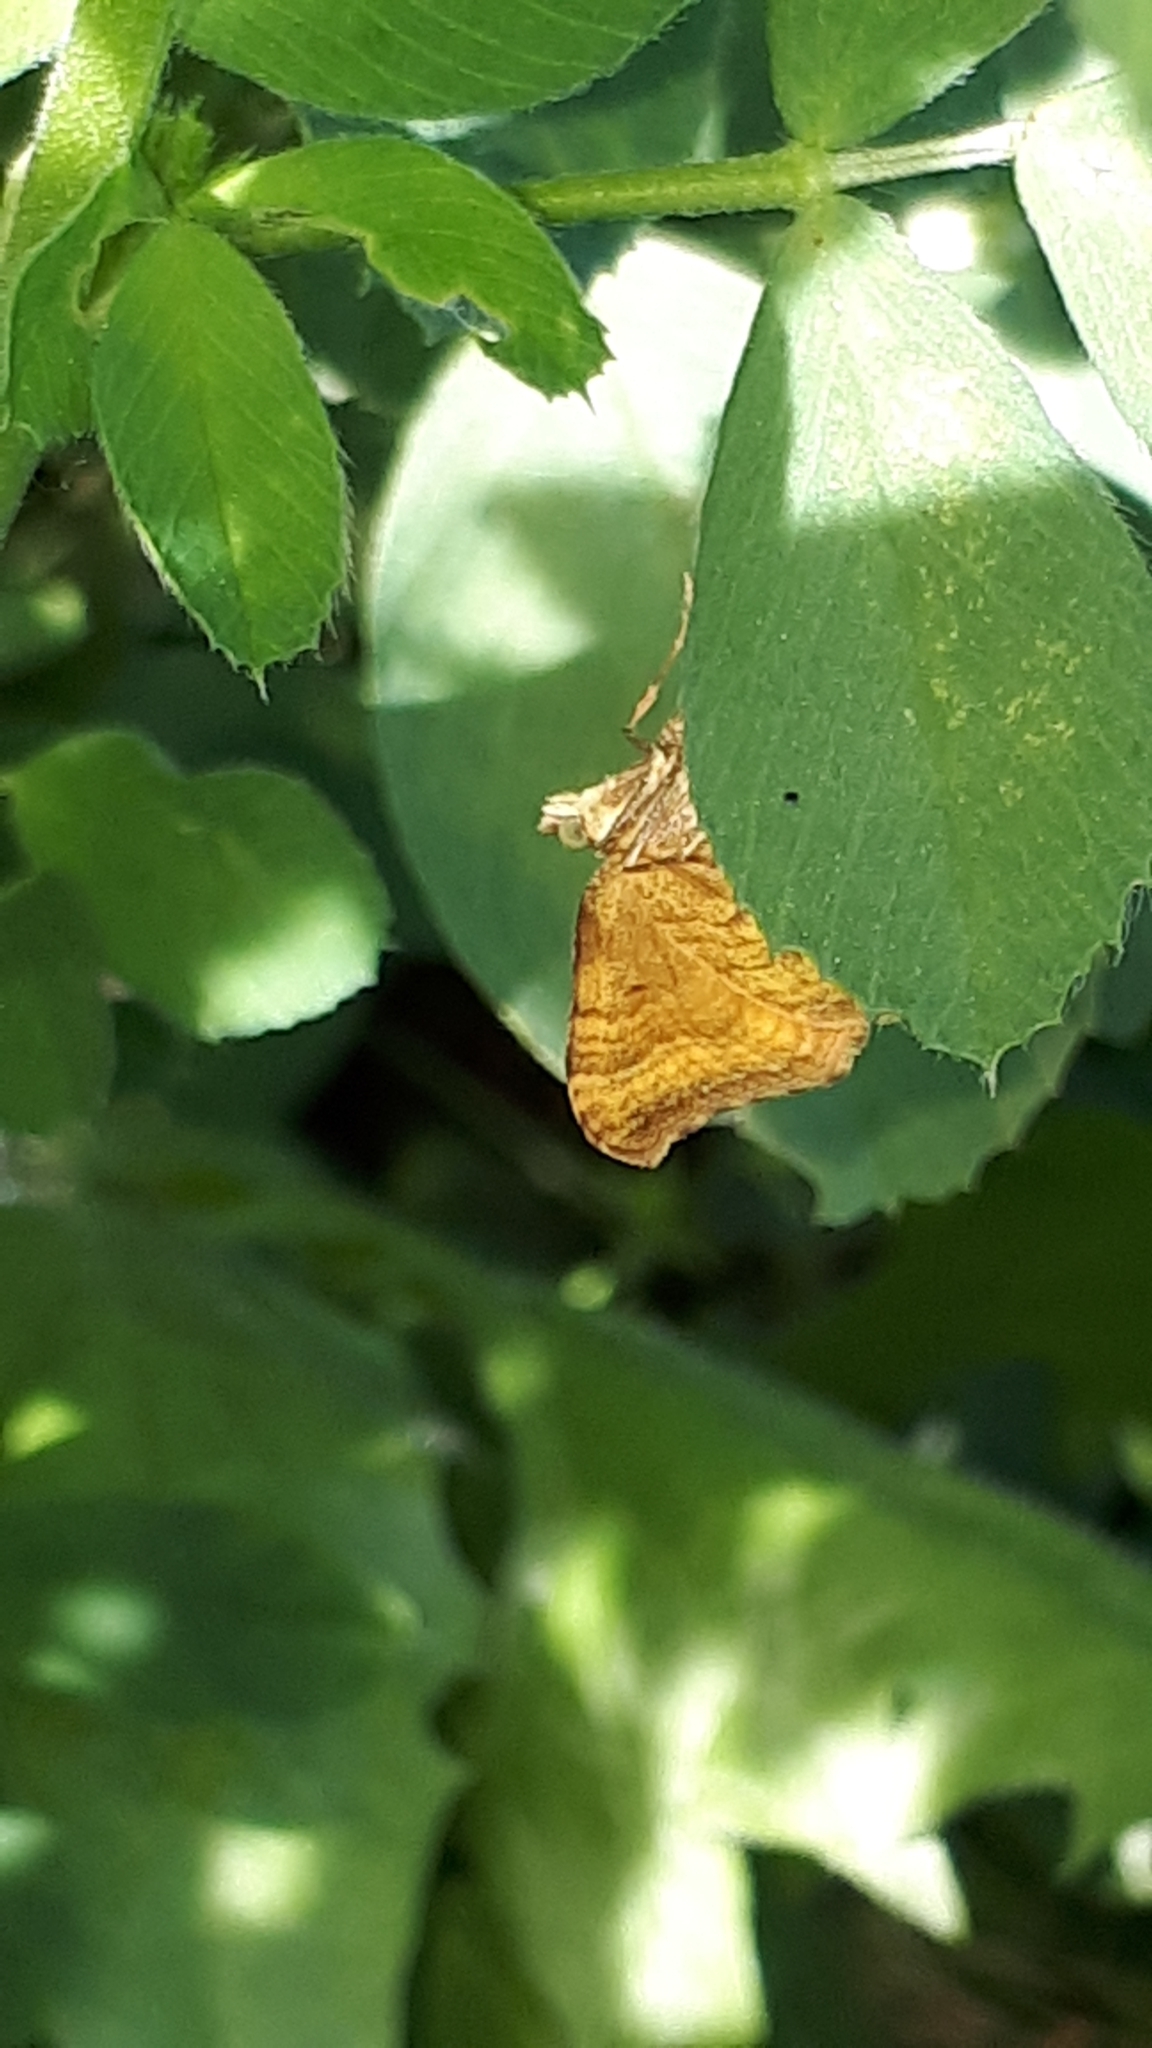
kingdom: Animalia
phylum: Arthropoda
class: Insecta
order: Lepidoptera
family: Geometridae
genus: Camptogramma
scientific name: Camptogramma bilineata
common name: Yellow shell
